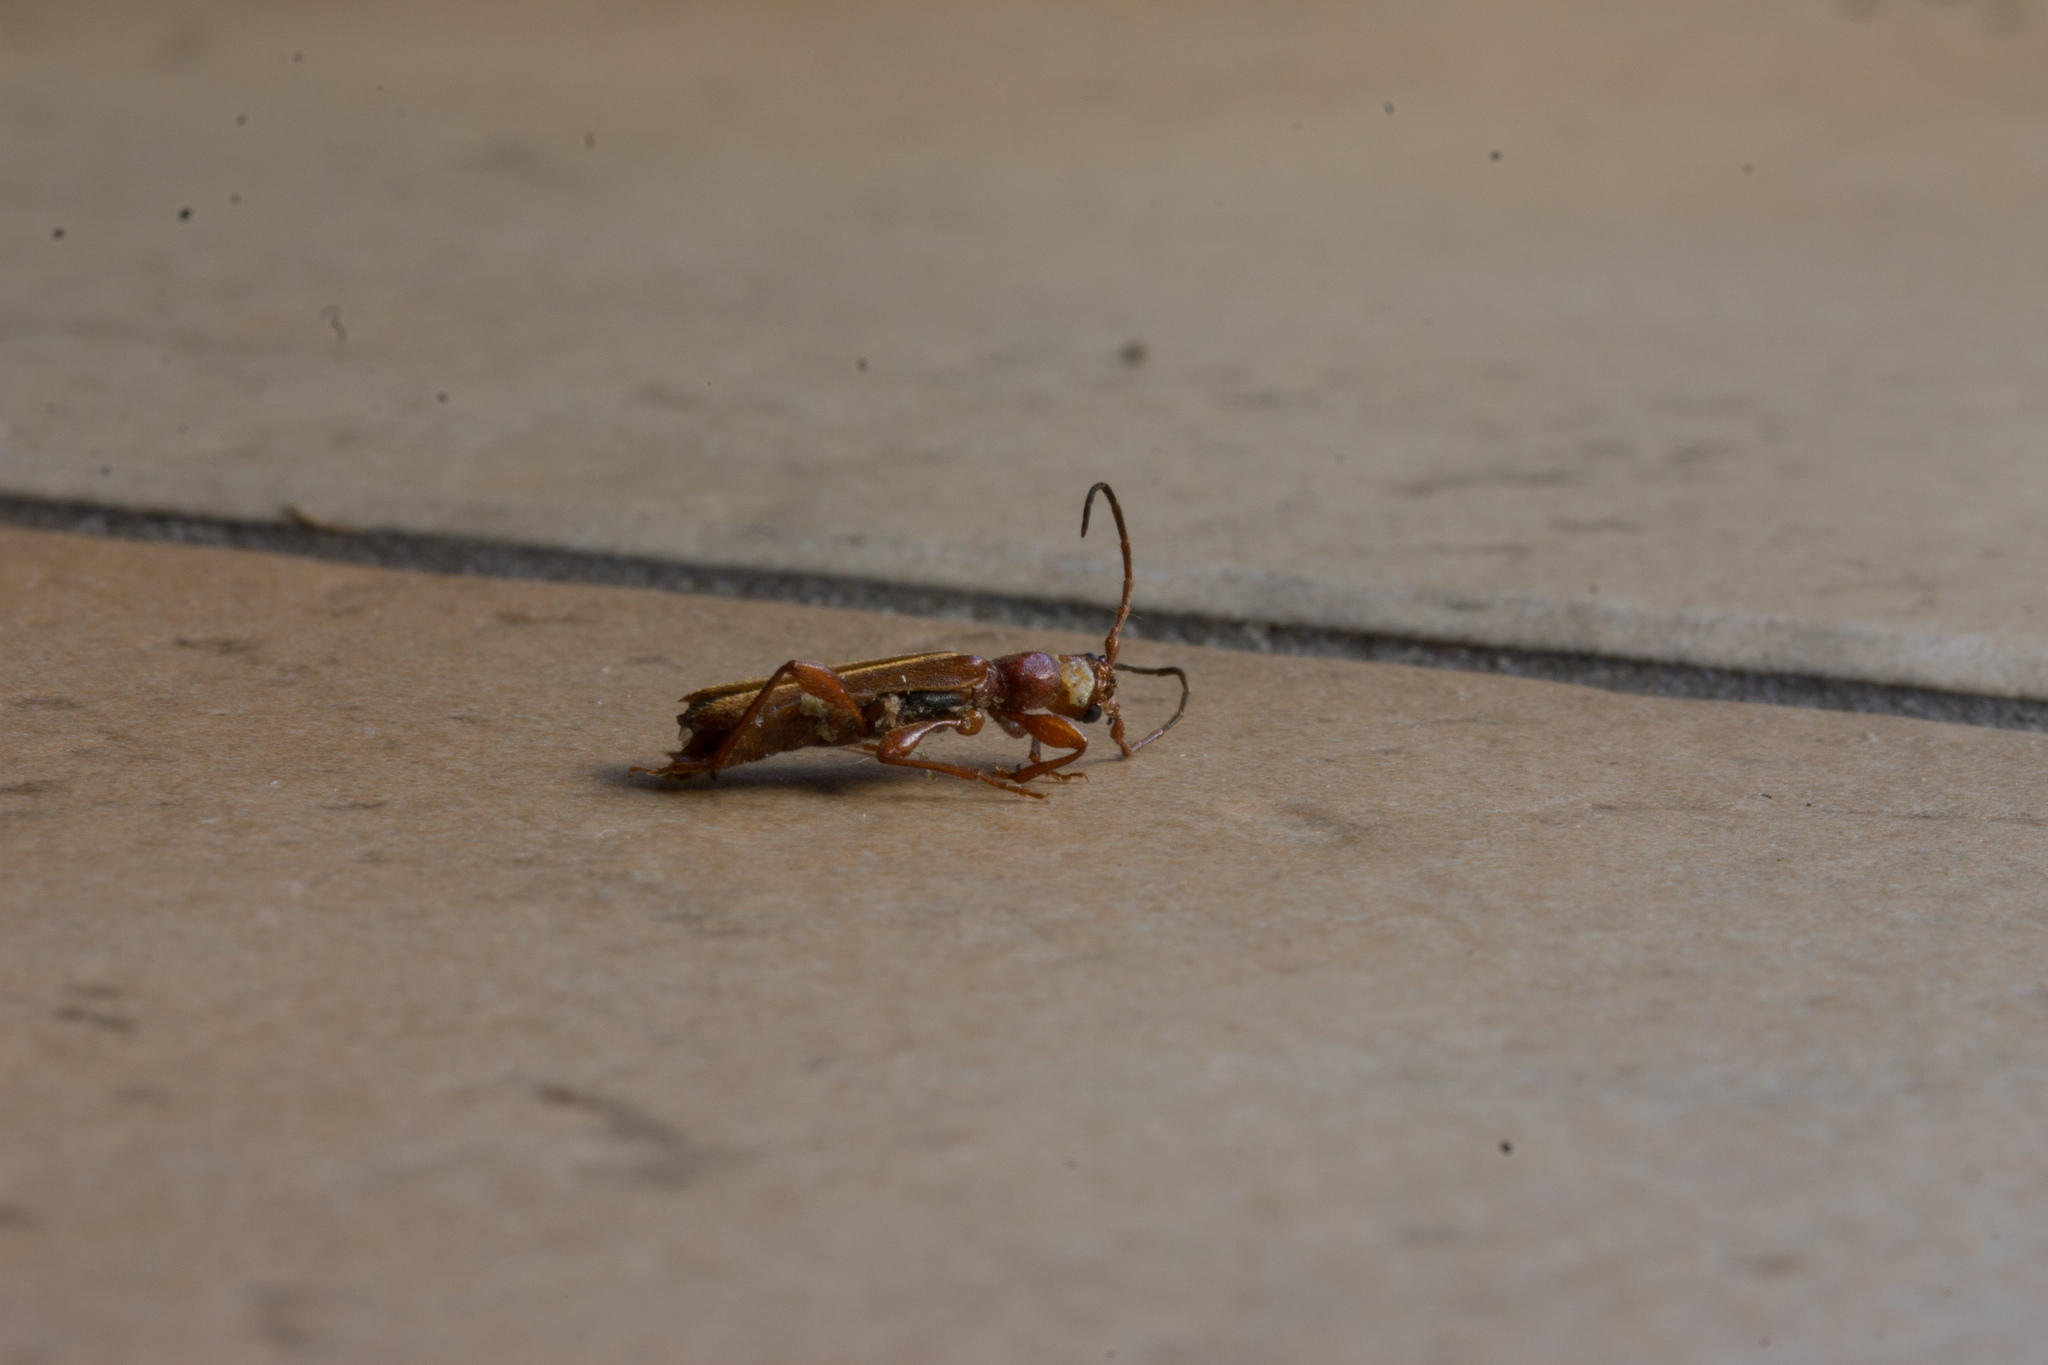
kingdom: Animalia
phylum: Arthropoda
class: Insecta
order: Coleoptera
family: Cerambycidae
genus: Phymatodes
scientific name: Phymatodes testaceus
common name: Long-horned beetle
